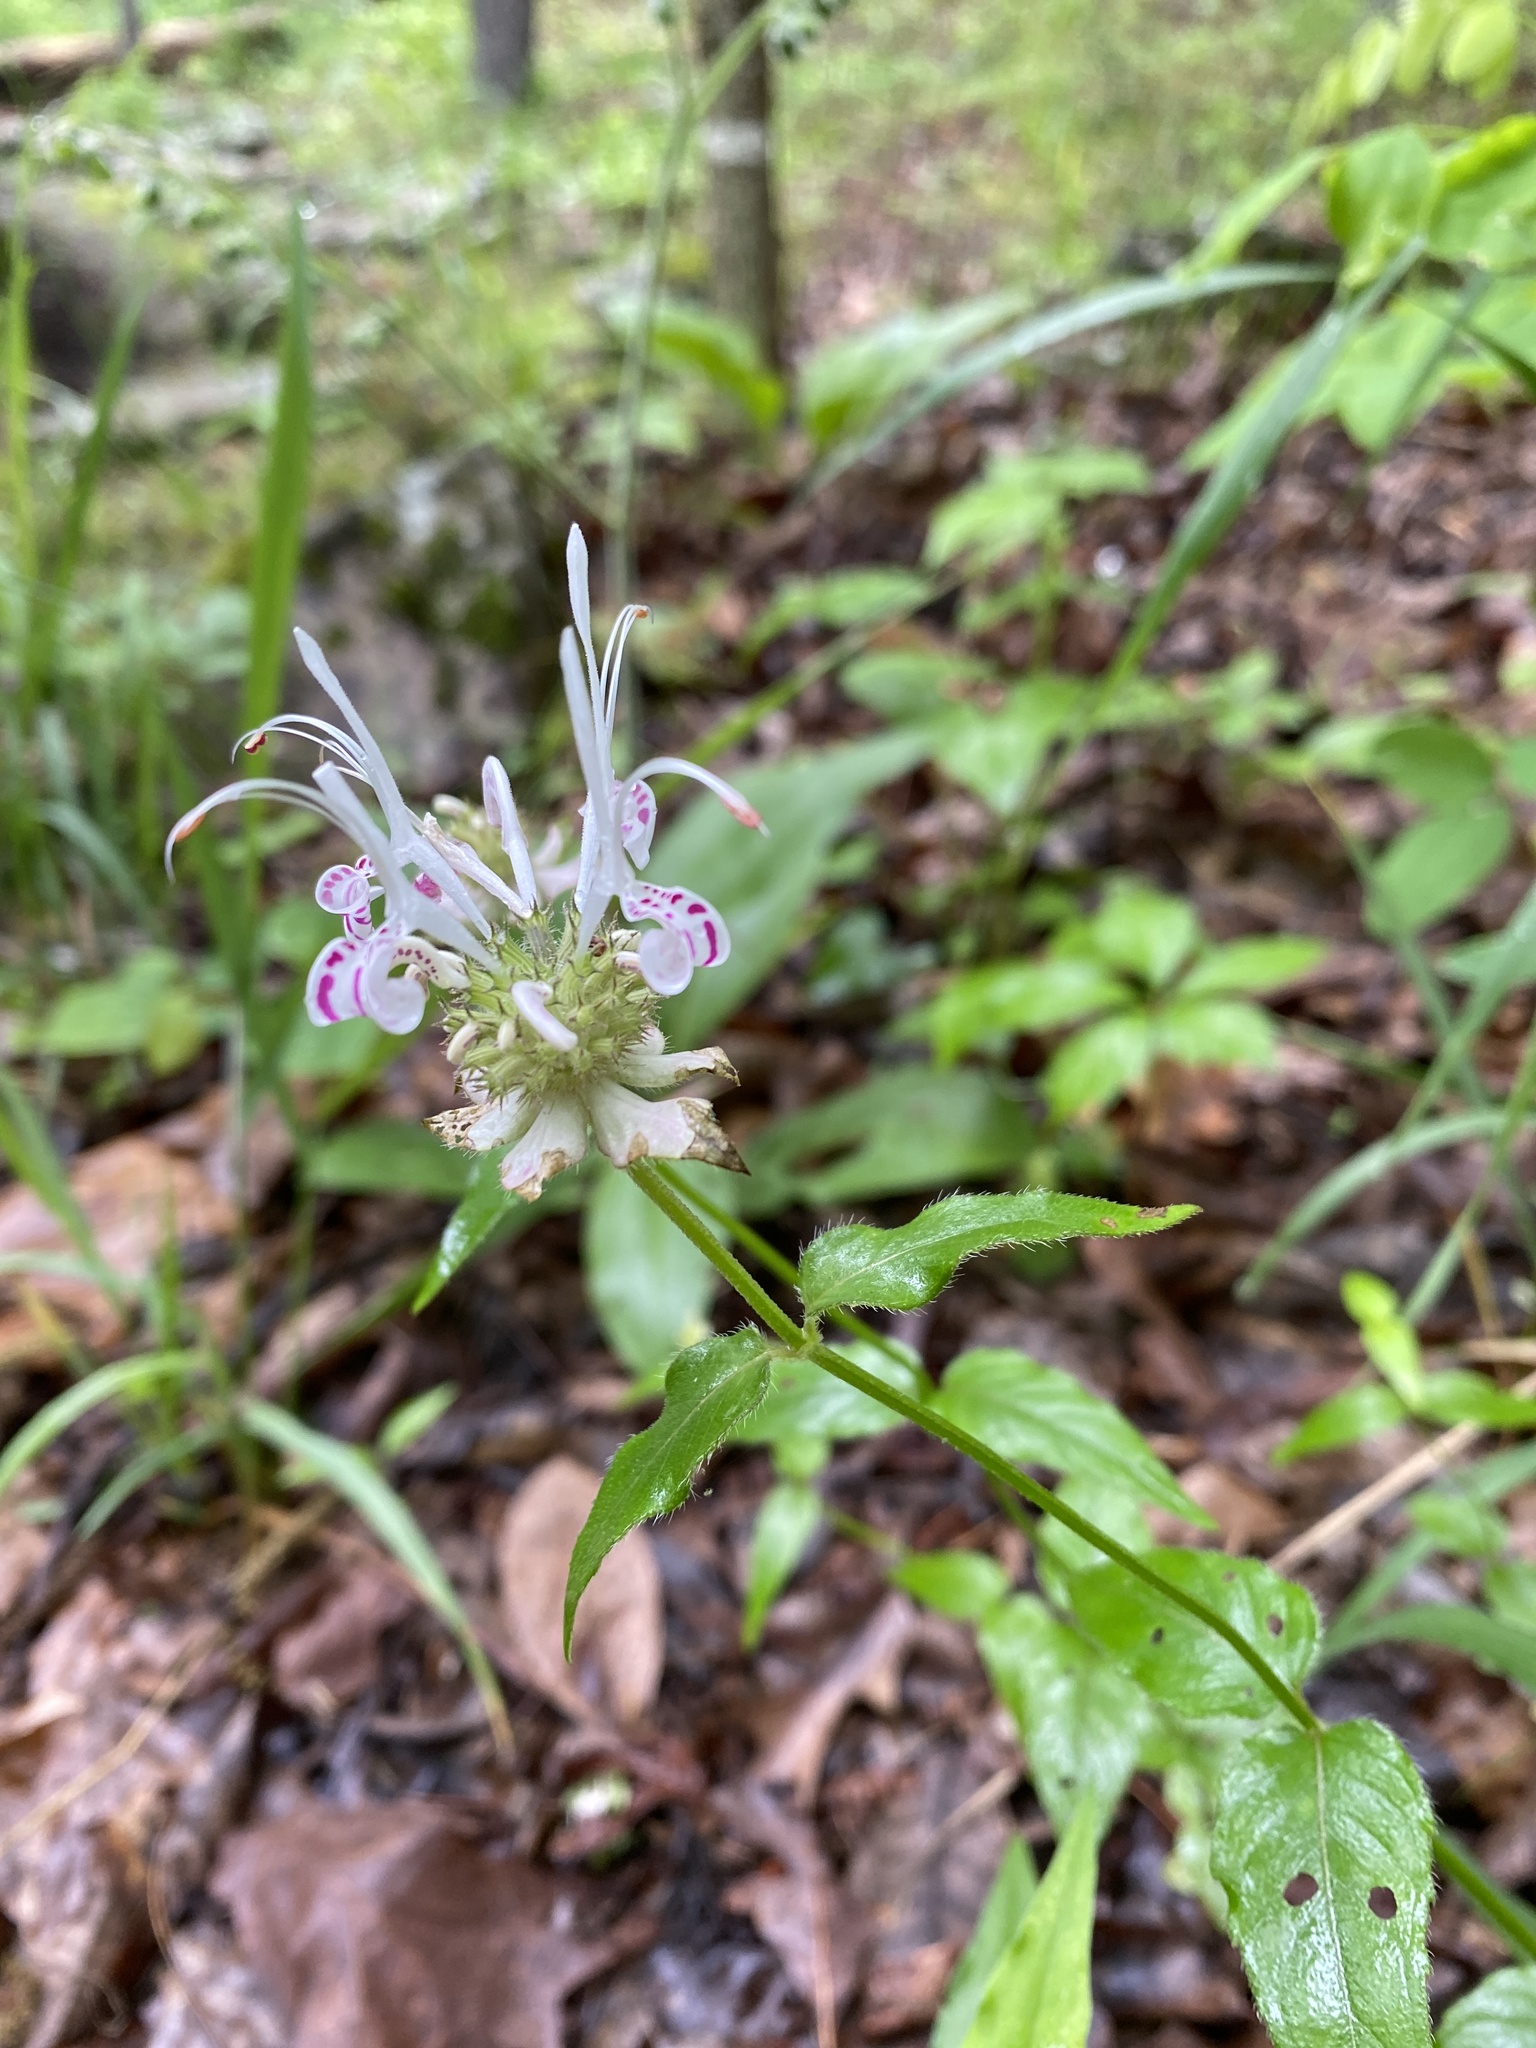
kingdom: Plantae
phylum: Tracheophyta
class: Magnoliopsida
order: Lamiales
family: Lamiaceae
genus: Monarda
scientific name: Monarda russeliana
